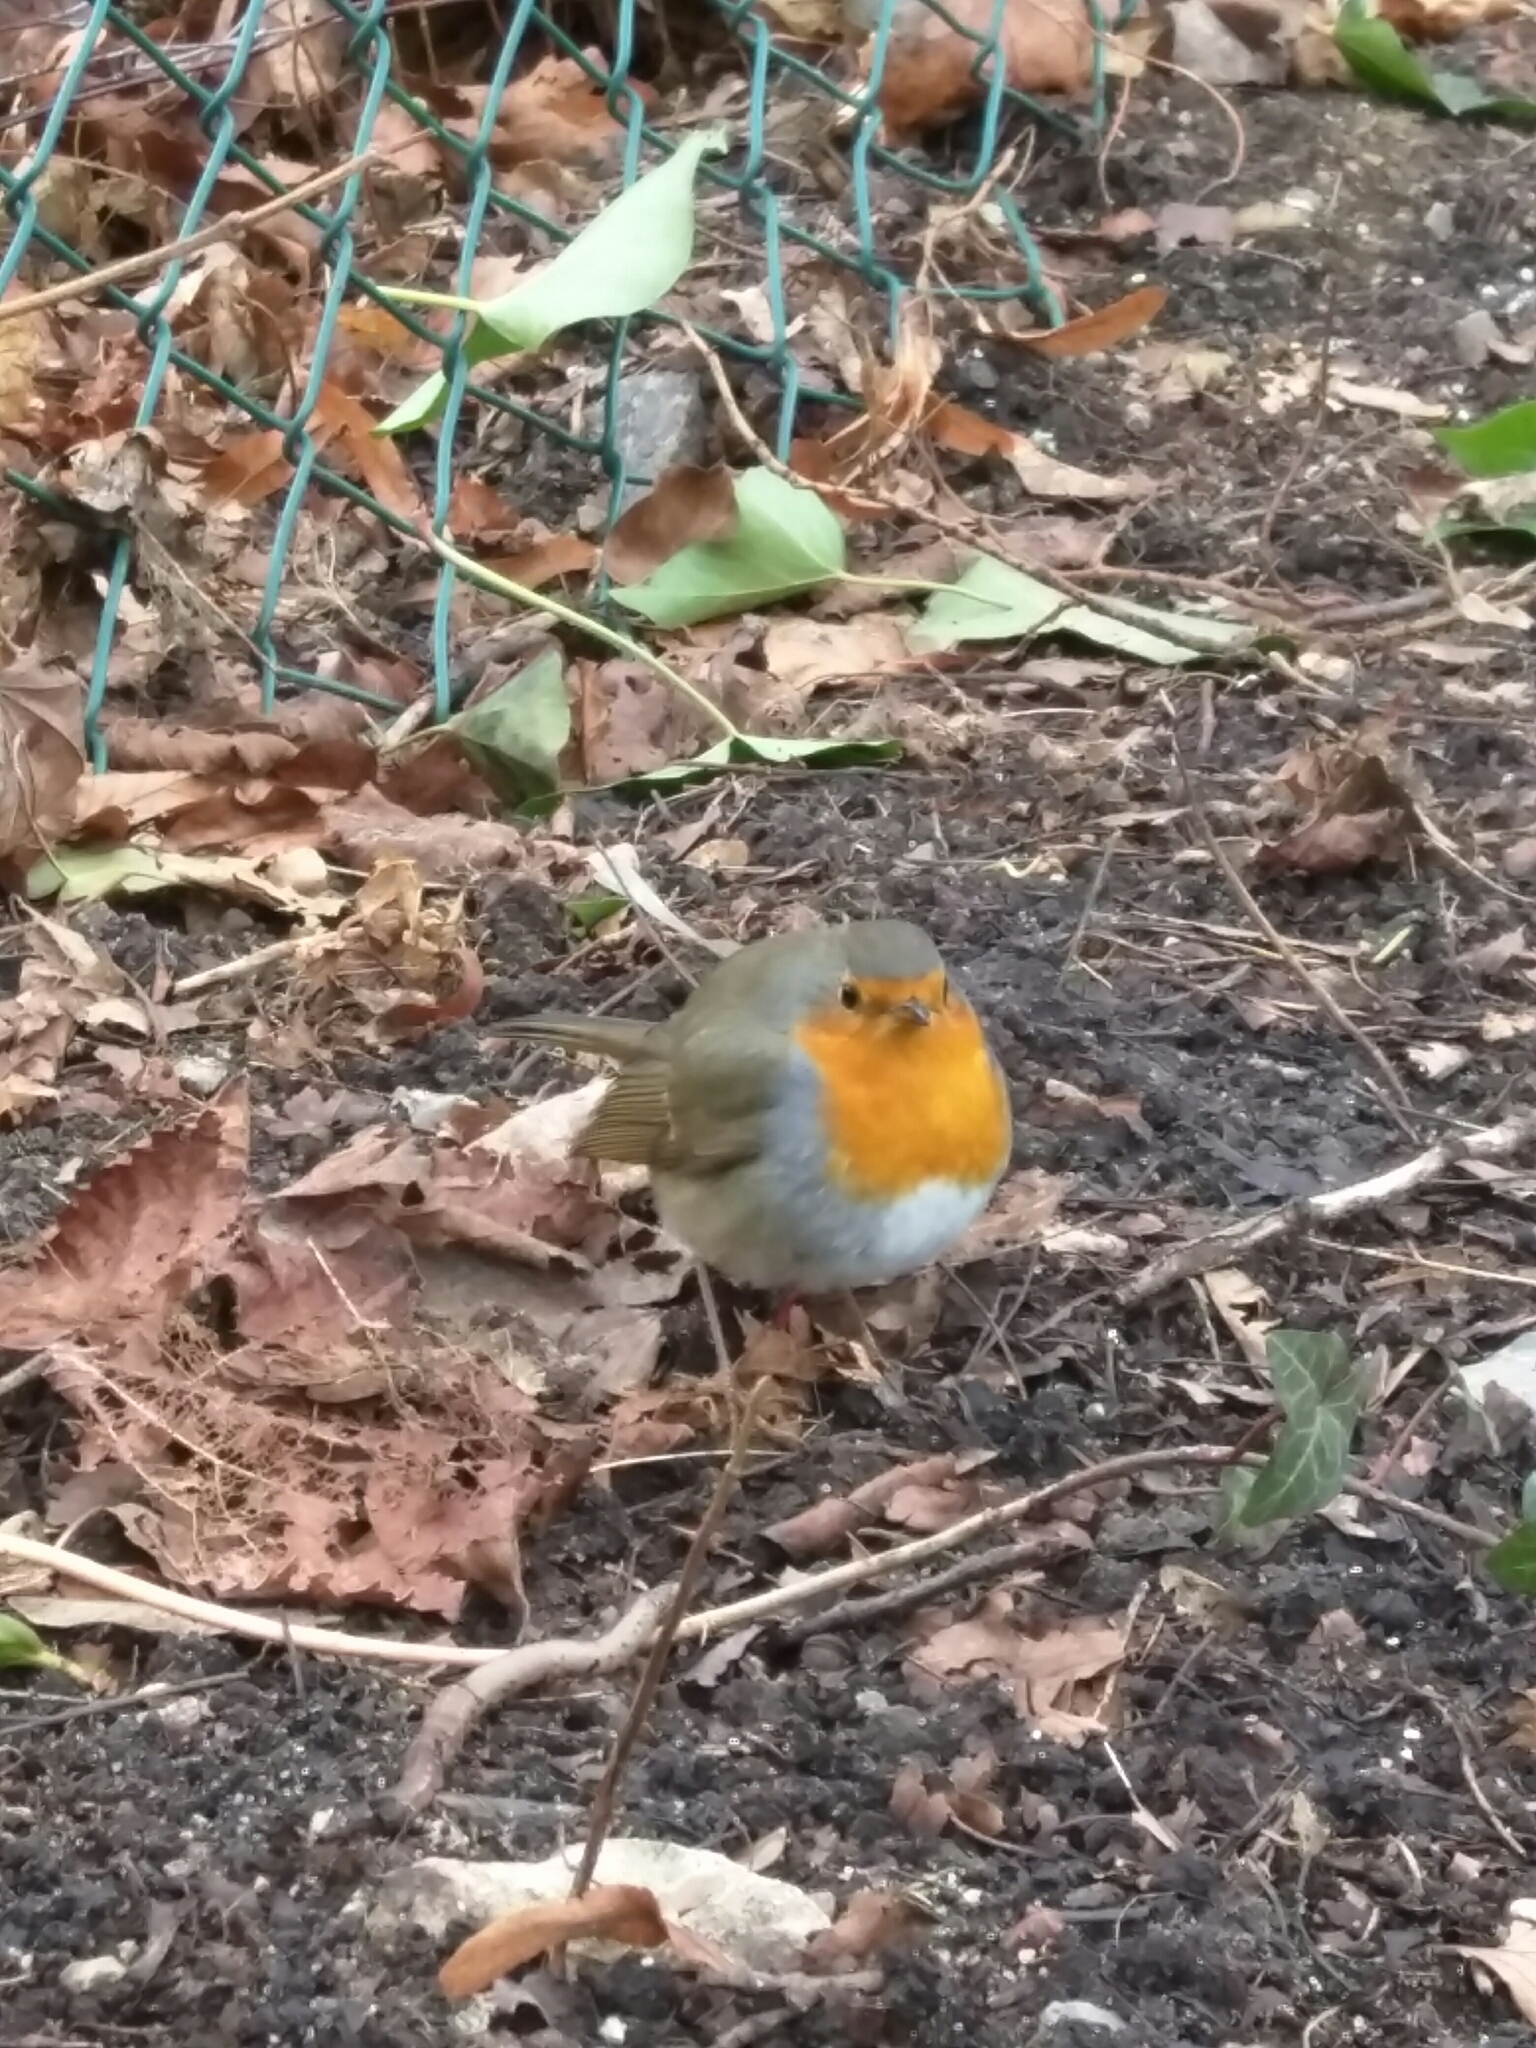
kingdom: Animalia
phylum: Chordata
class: Aves
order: Passeriformes
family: Muscicapidae
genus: Erithacus
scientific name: Erithacus rubecula
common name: European robin
